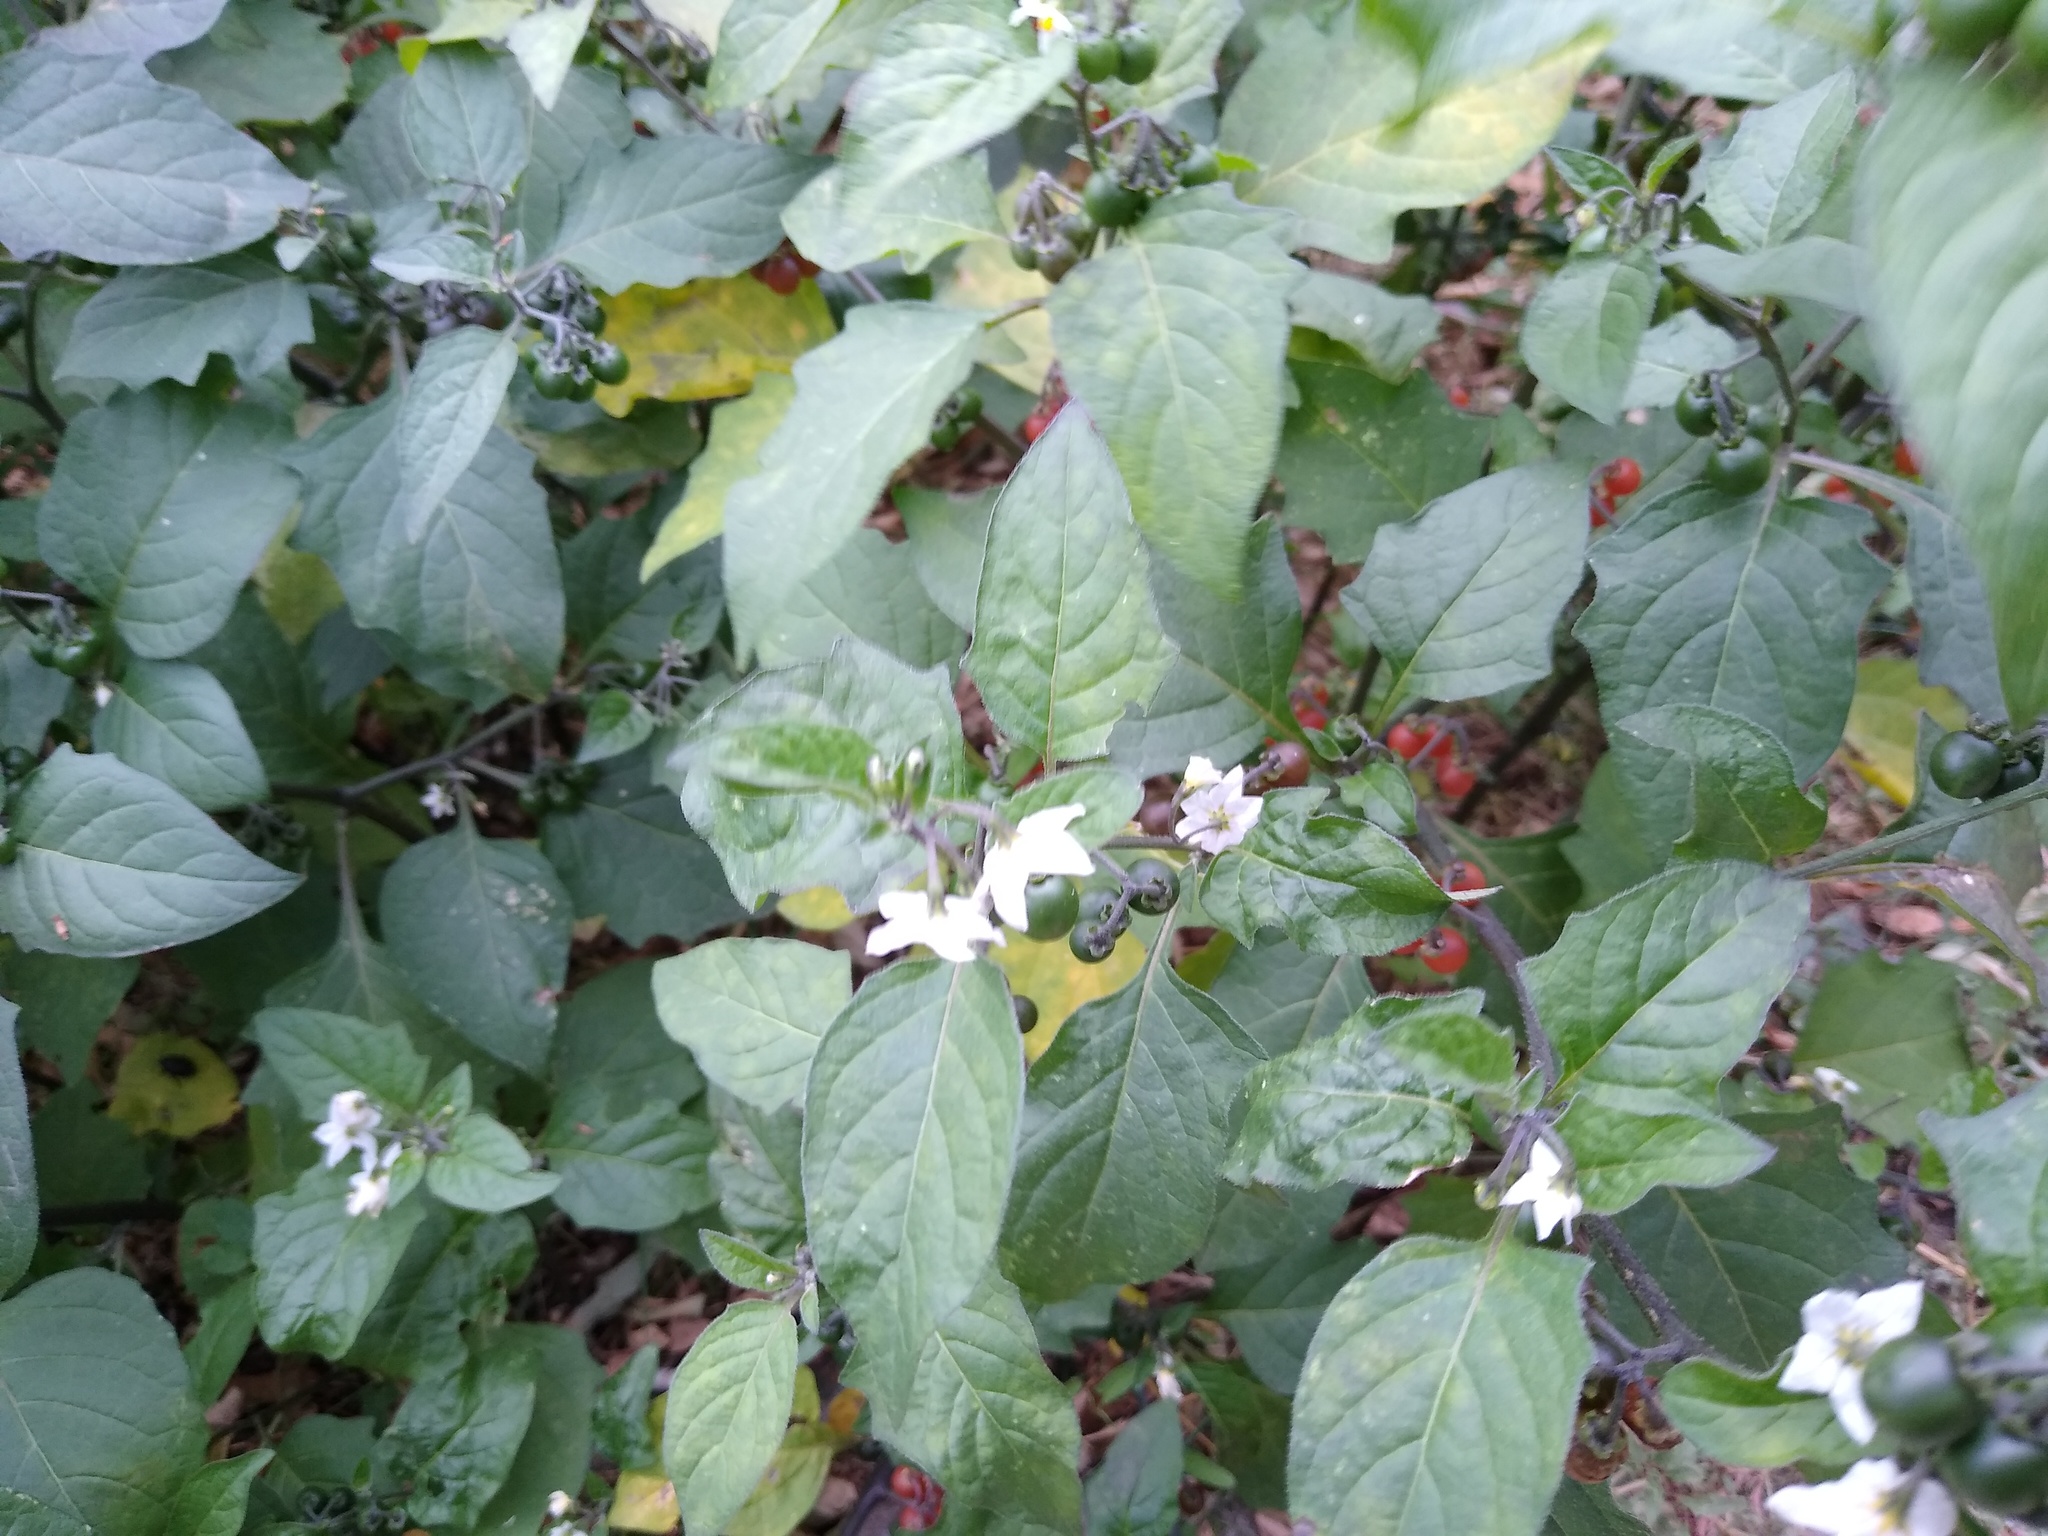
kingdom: Plantae
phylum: Tracheophyta
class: Magnoliopsida
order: Solanales
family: Solanaceae
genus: Solanum
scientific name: Solanum villosum
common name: Red nightshade
